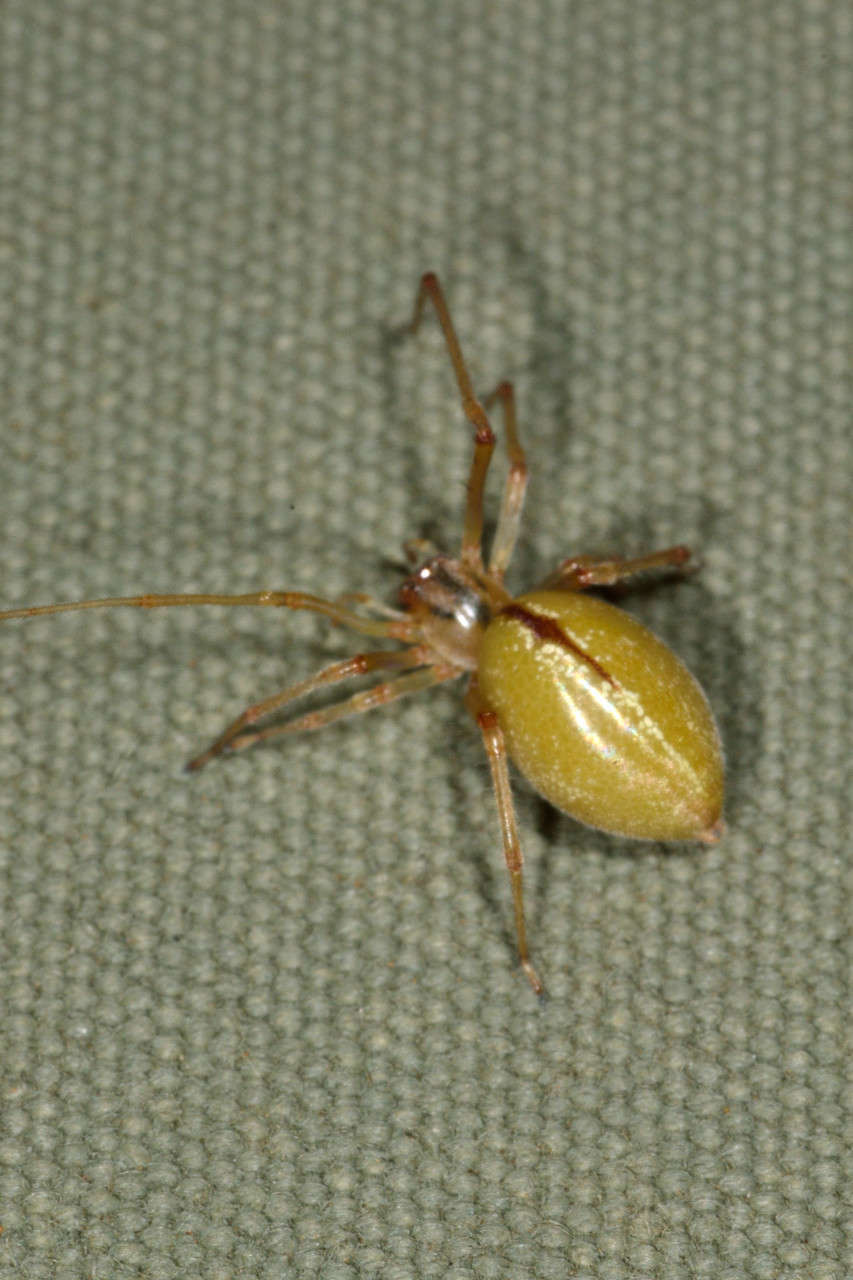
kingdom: Animalia
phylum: Arthropoda
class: Arachnida
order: Araneae
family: Cheiracanthiidae
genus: Eutittha
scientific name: Eutittha mordax
